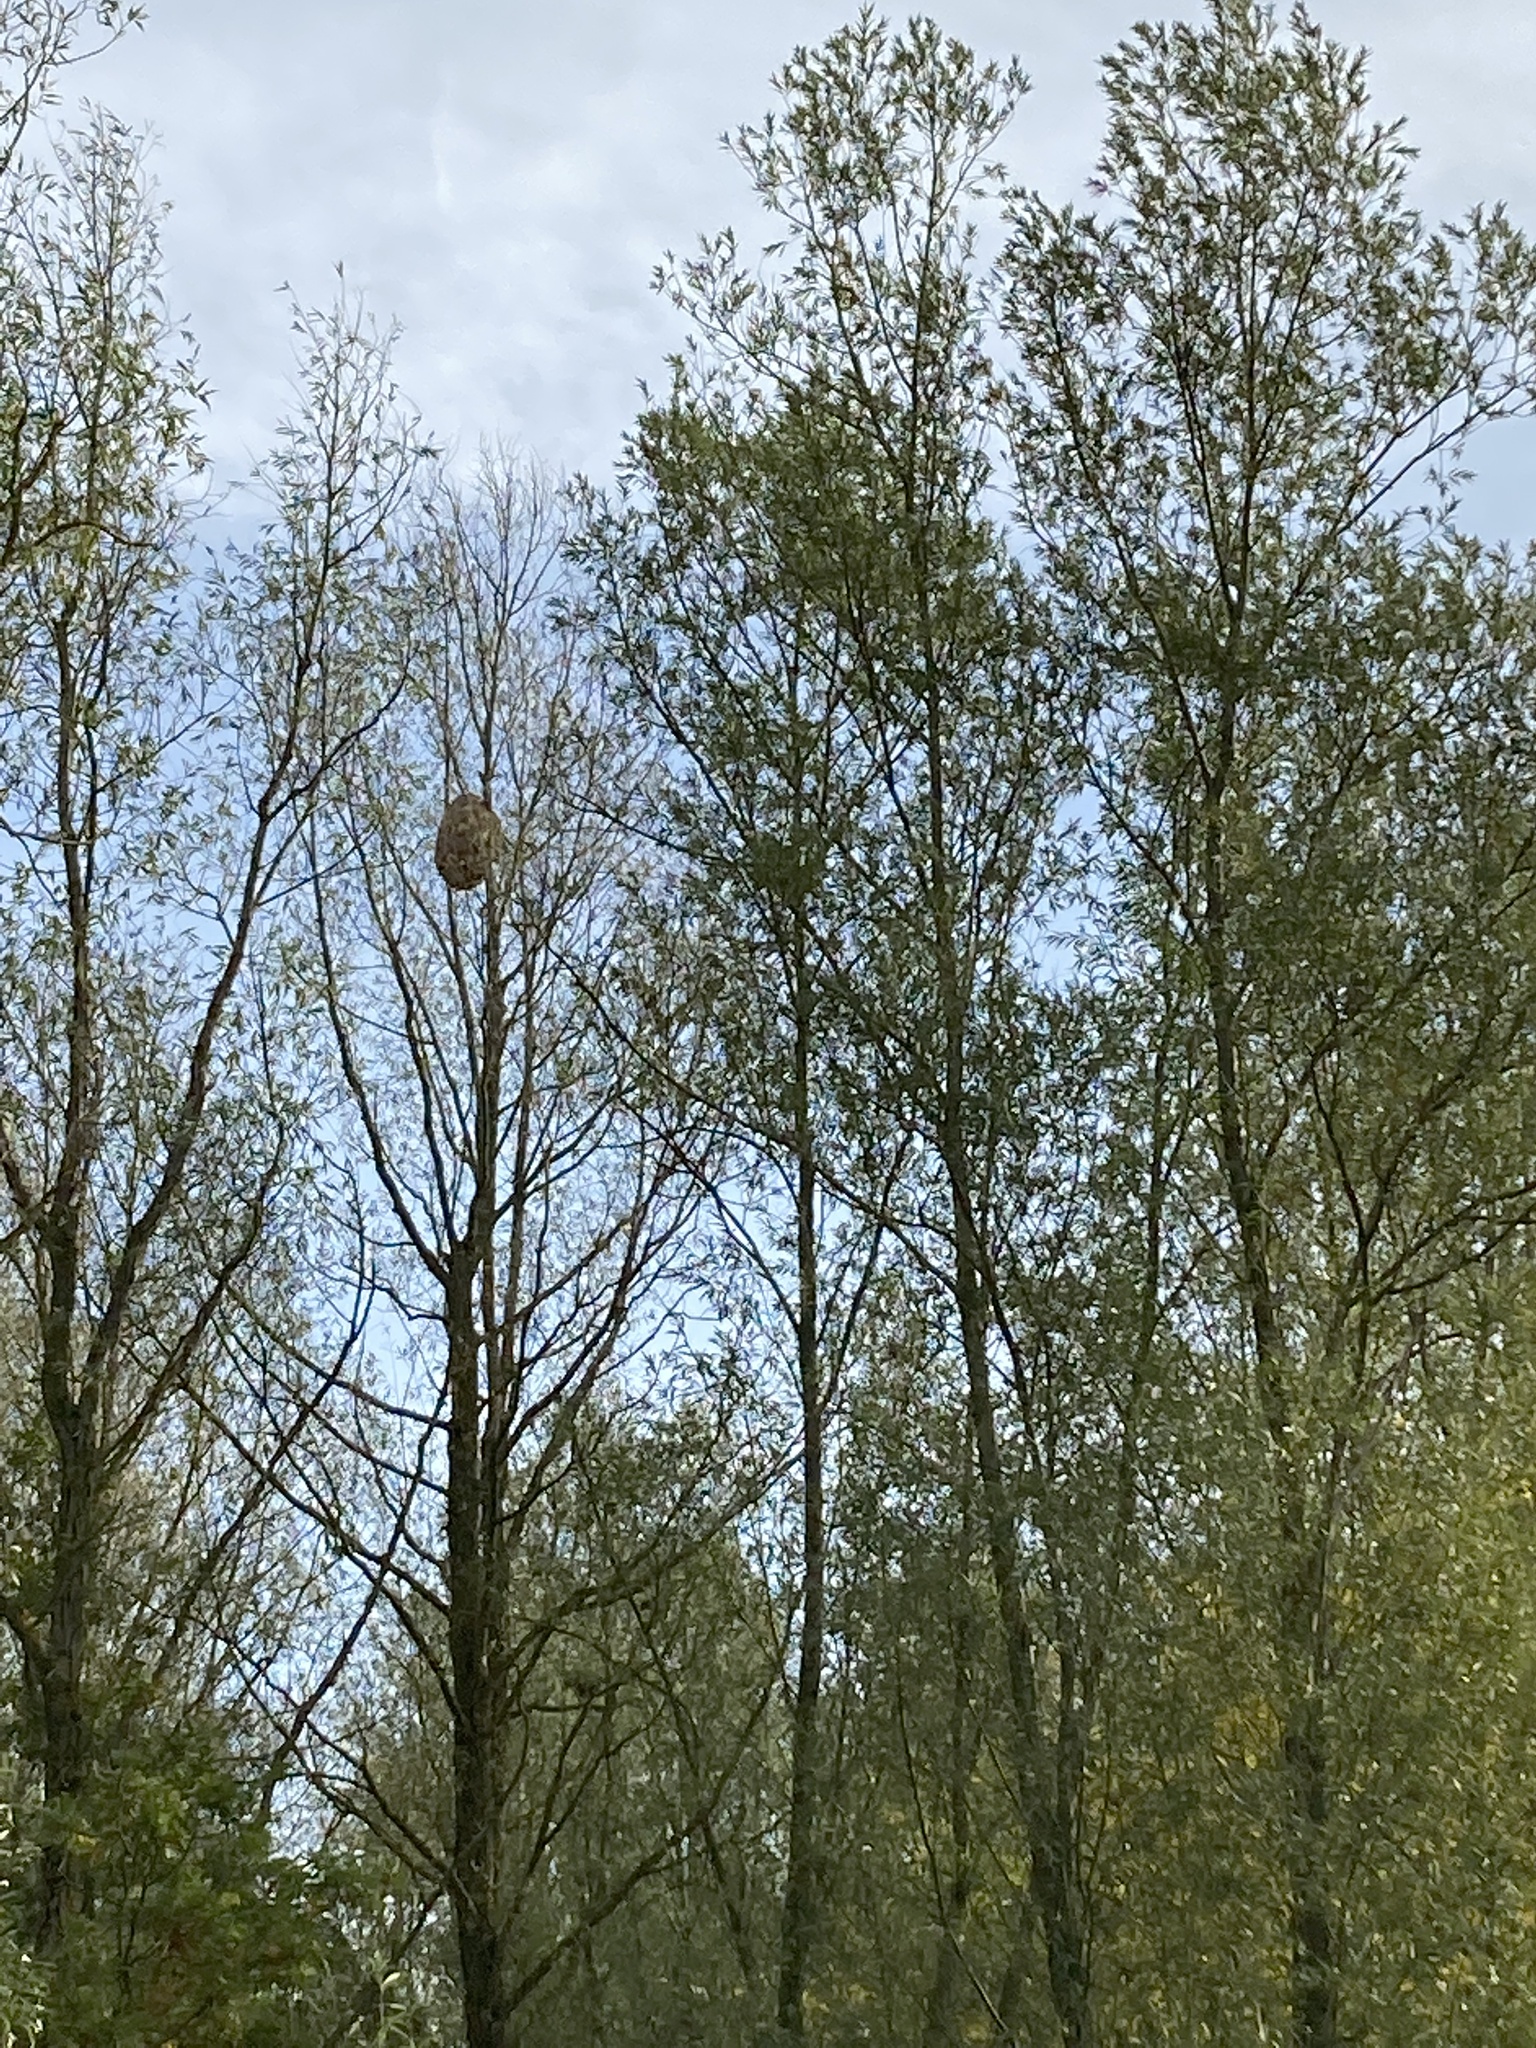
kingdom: Animalia
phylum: Arthropoda
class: Insecta
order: Hymenoptera
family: Vespidae
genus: Vespa
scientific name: Vespa velutina
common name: Asian hornet
